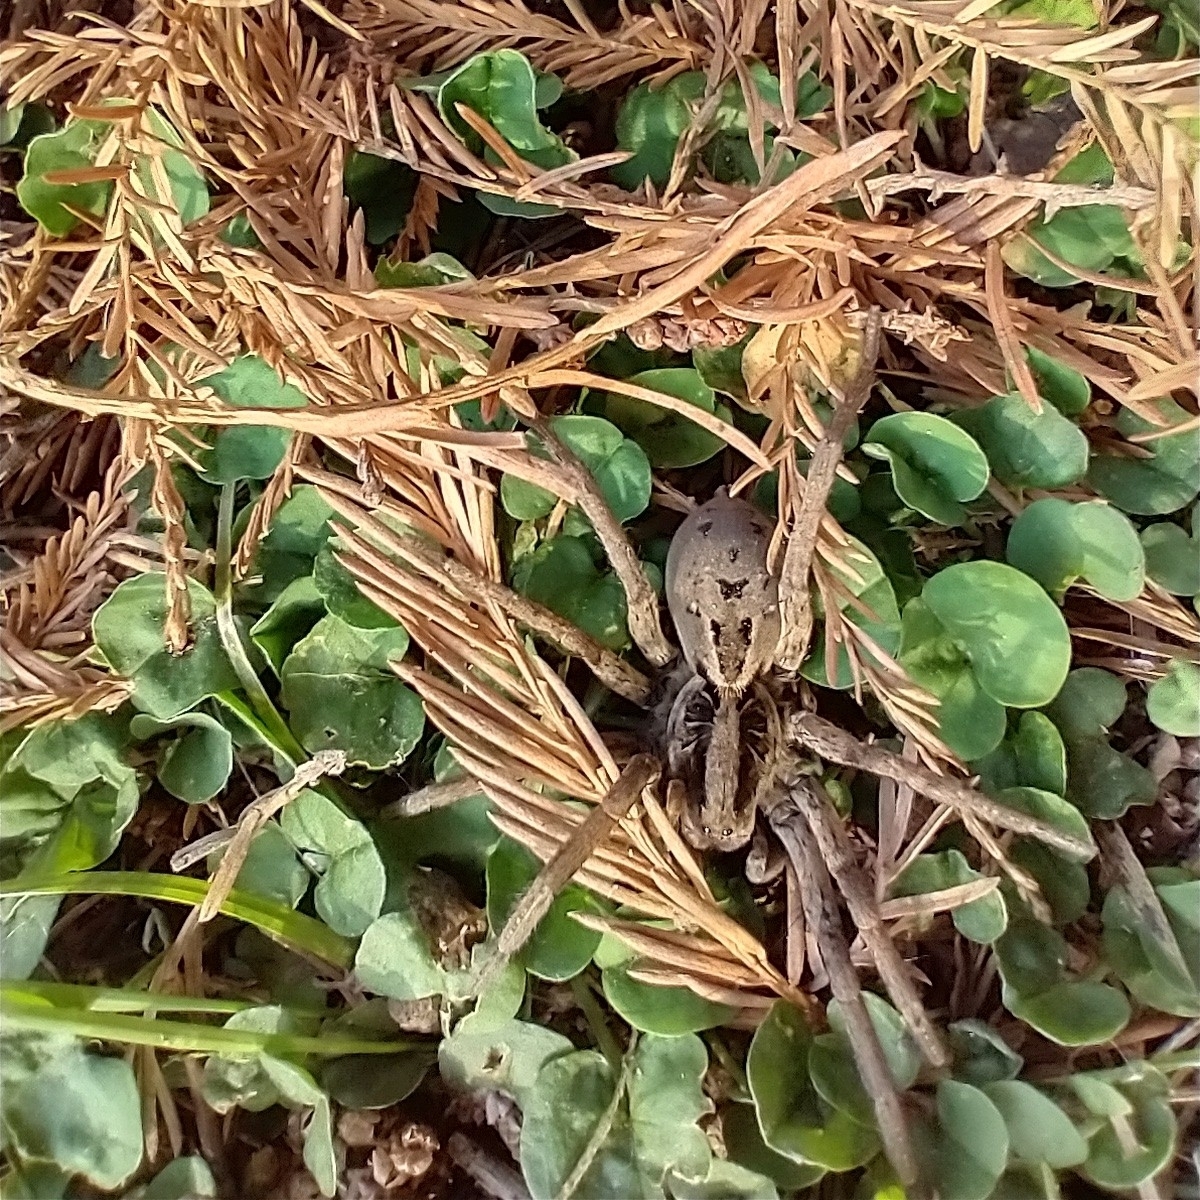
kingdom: Animalia
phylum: Arthropoda
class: Arachnida
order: Araneae
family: Lycosidae
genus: Lycosa
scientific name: Lycosa erythrognatha
